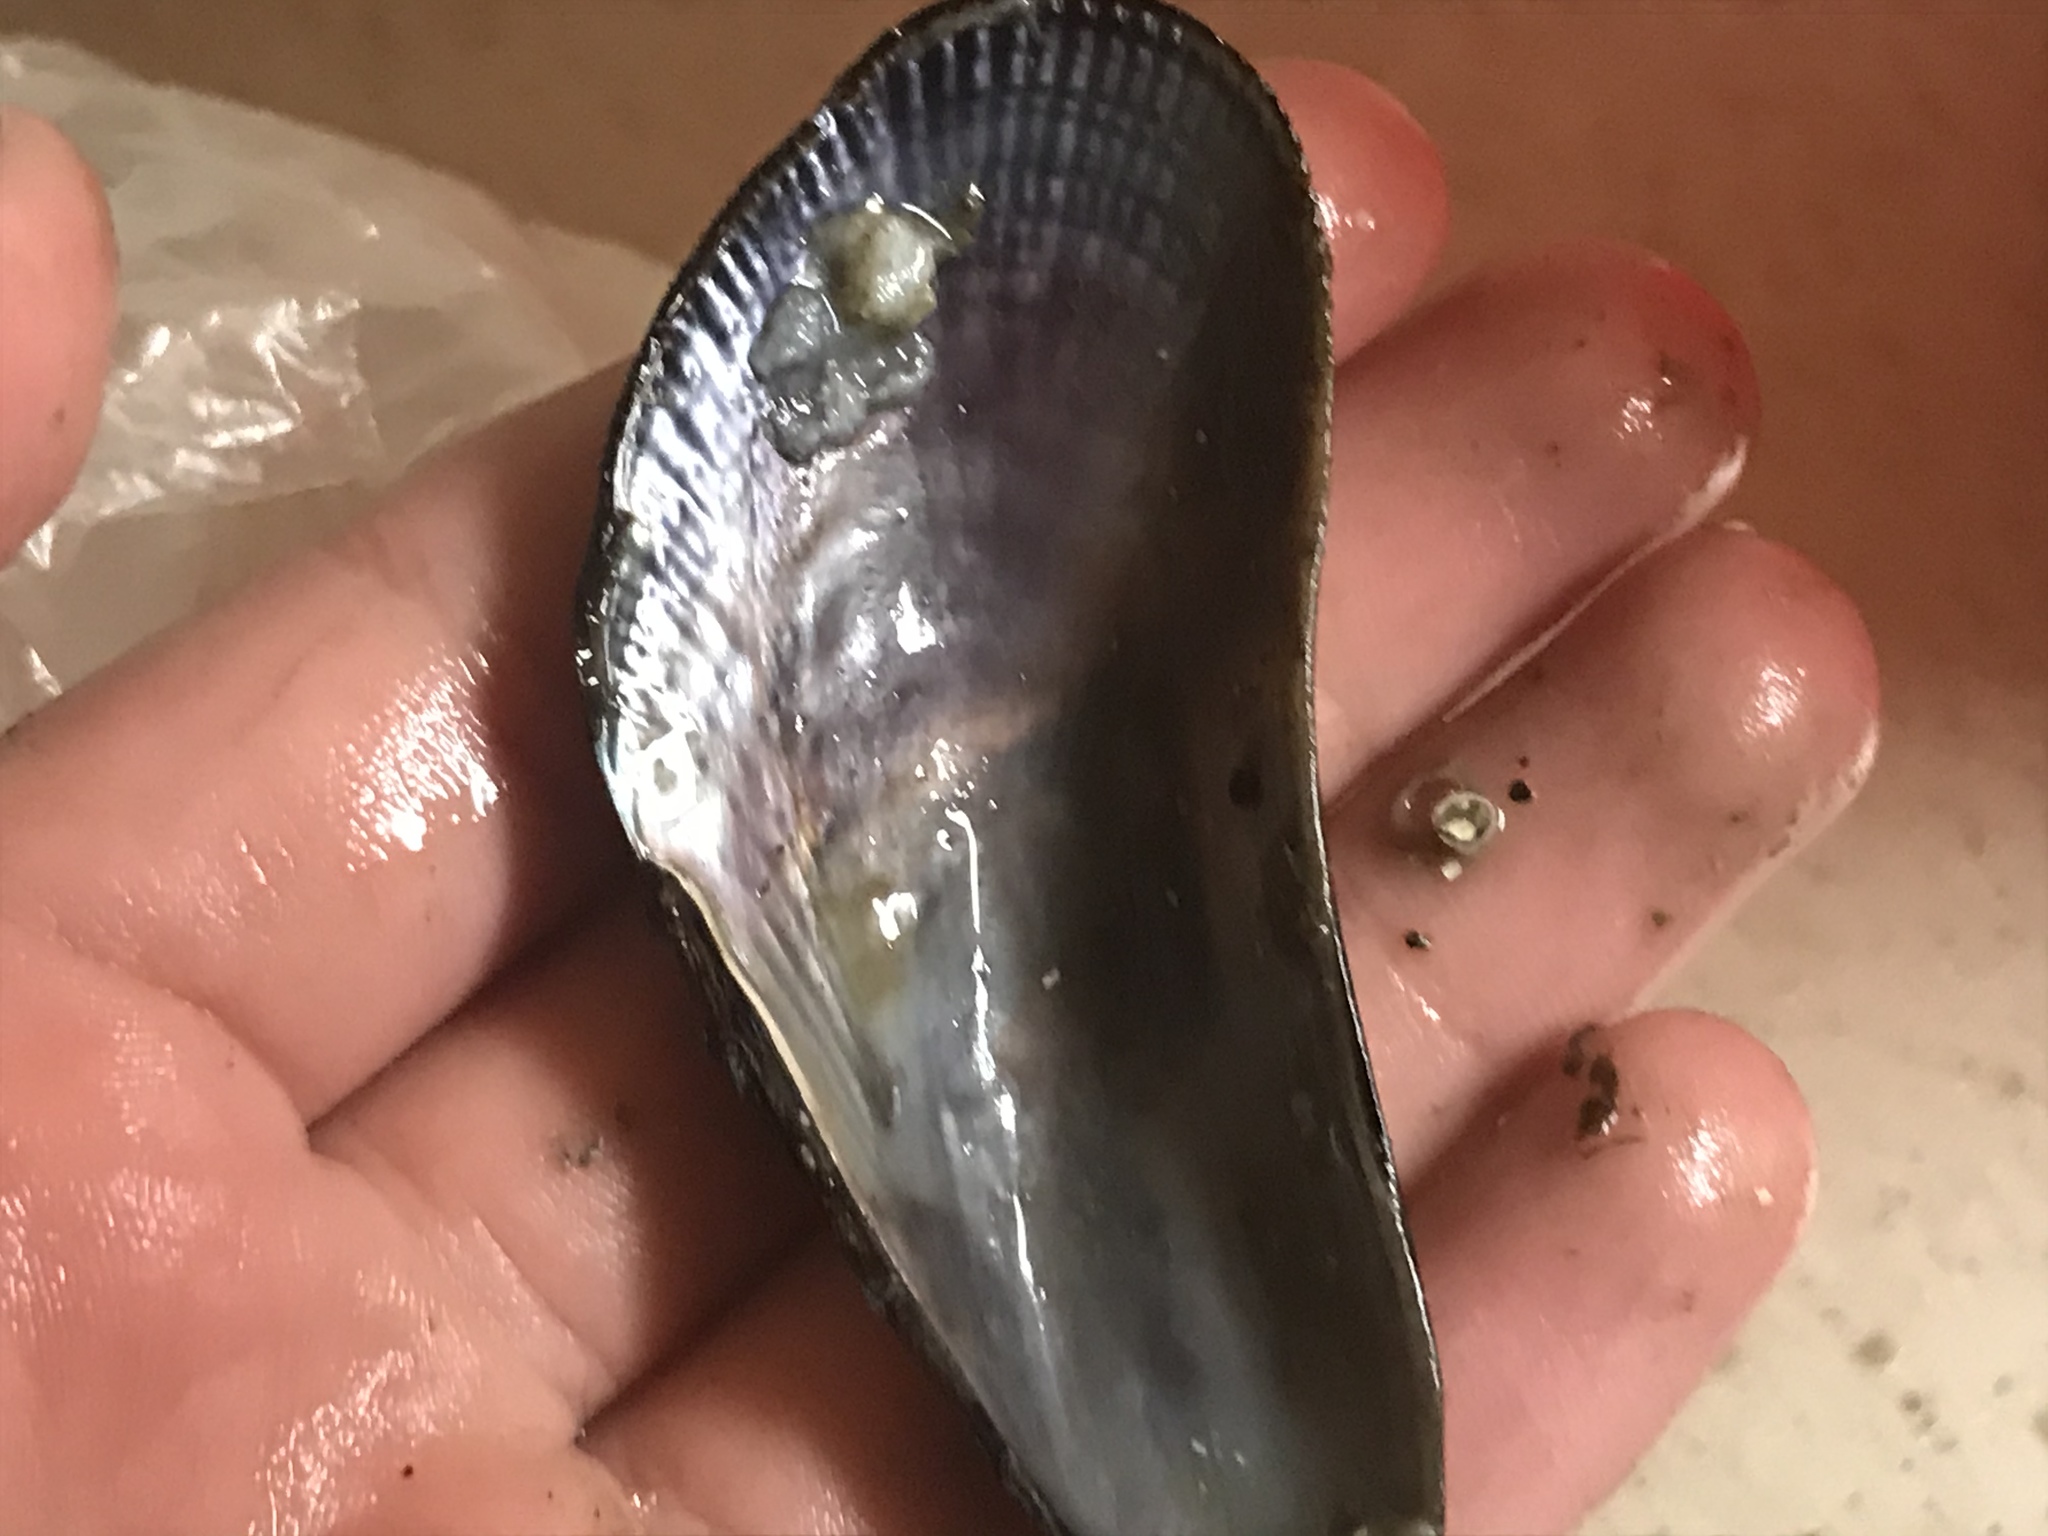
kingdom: Animalia
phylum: Mollusca
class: Bivalvia
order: Mytilida
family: Mytilidae
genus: Geukensia
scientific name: Geukensia demissa
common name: Ribbed mussel
